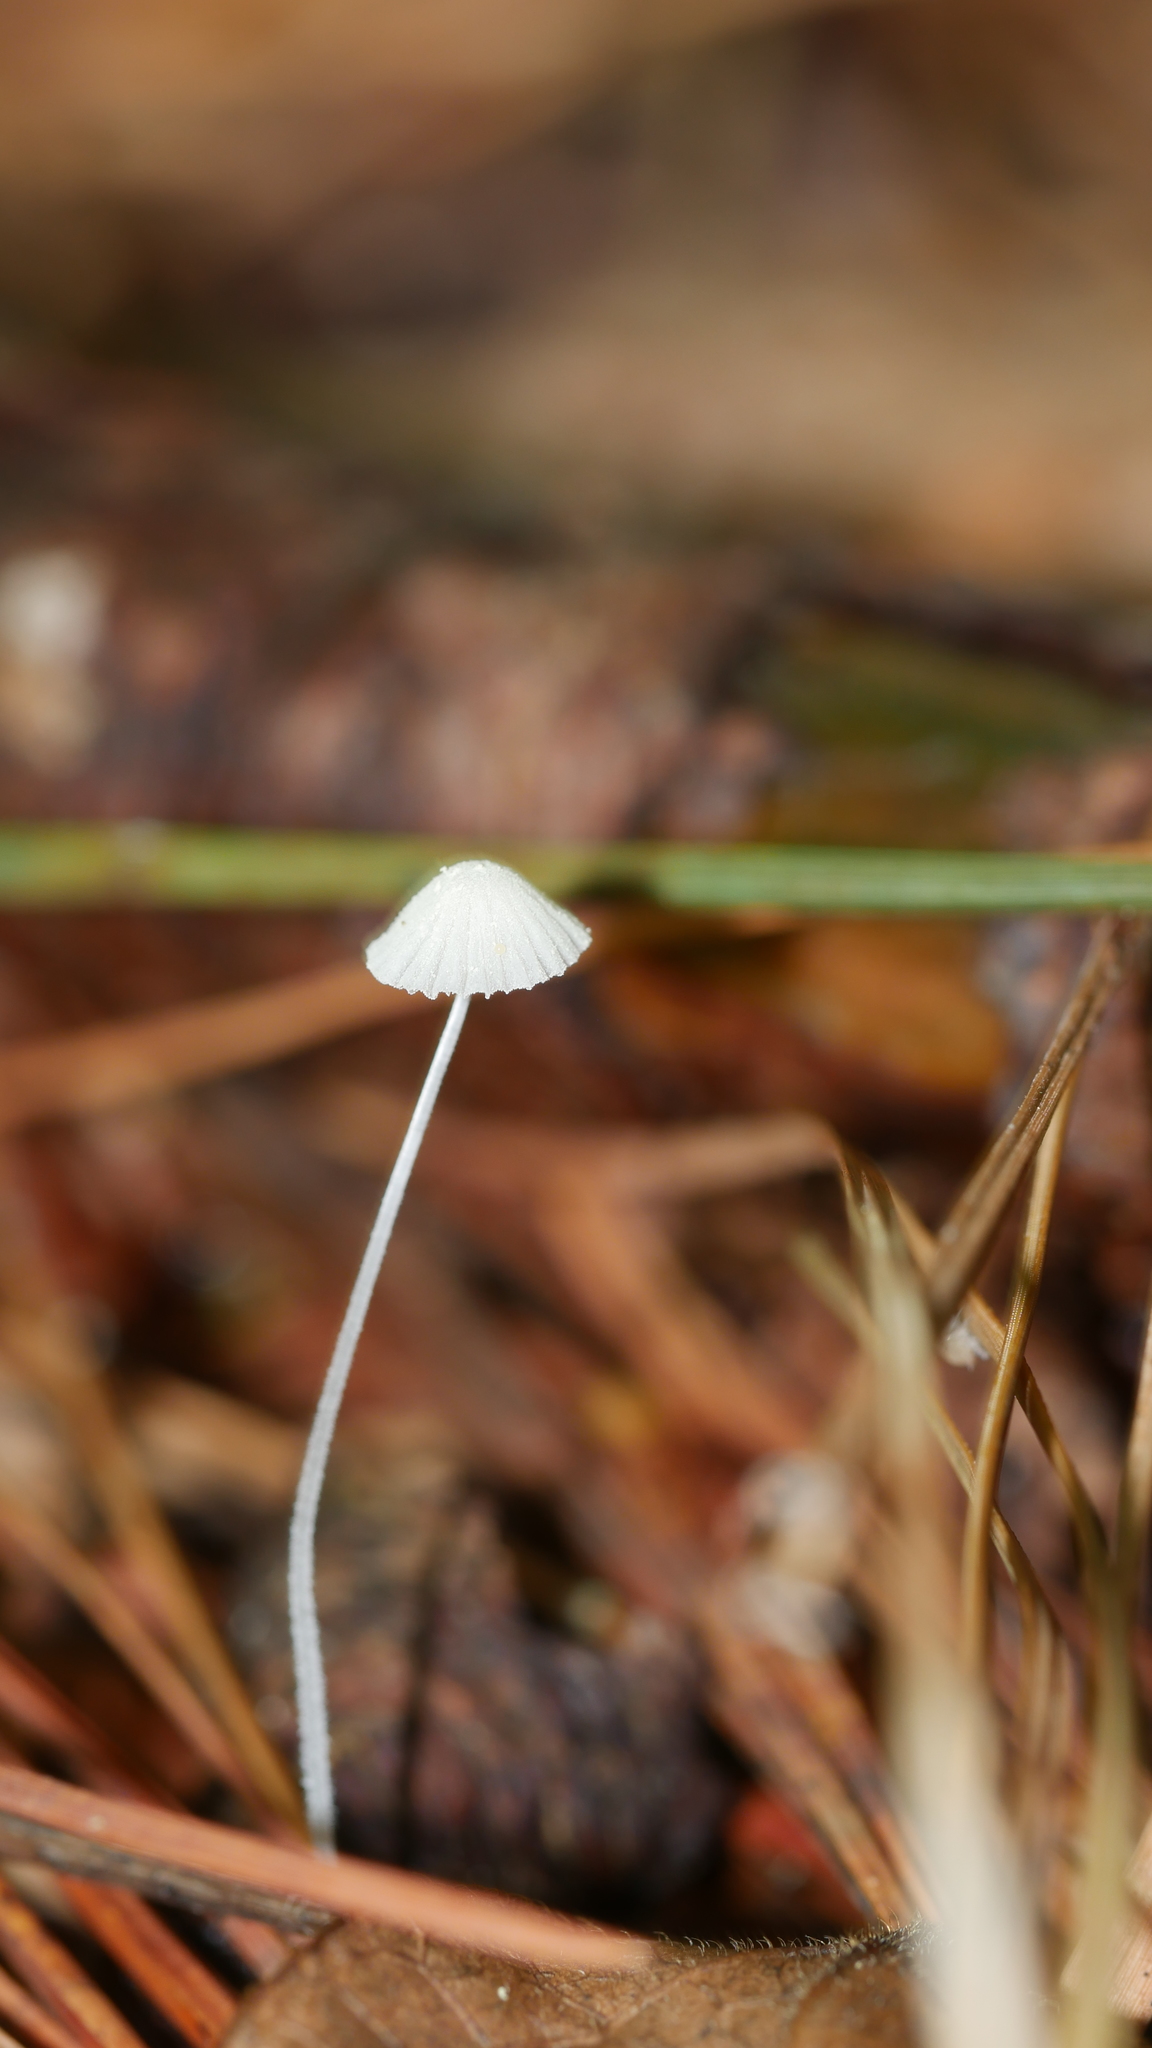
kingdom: Fungi
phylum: Basidiomycota
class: Agaricomycetes
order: Agaricales
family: Mycenaceae
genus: Hemimycena
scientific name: Hemimycena
